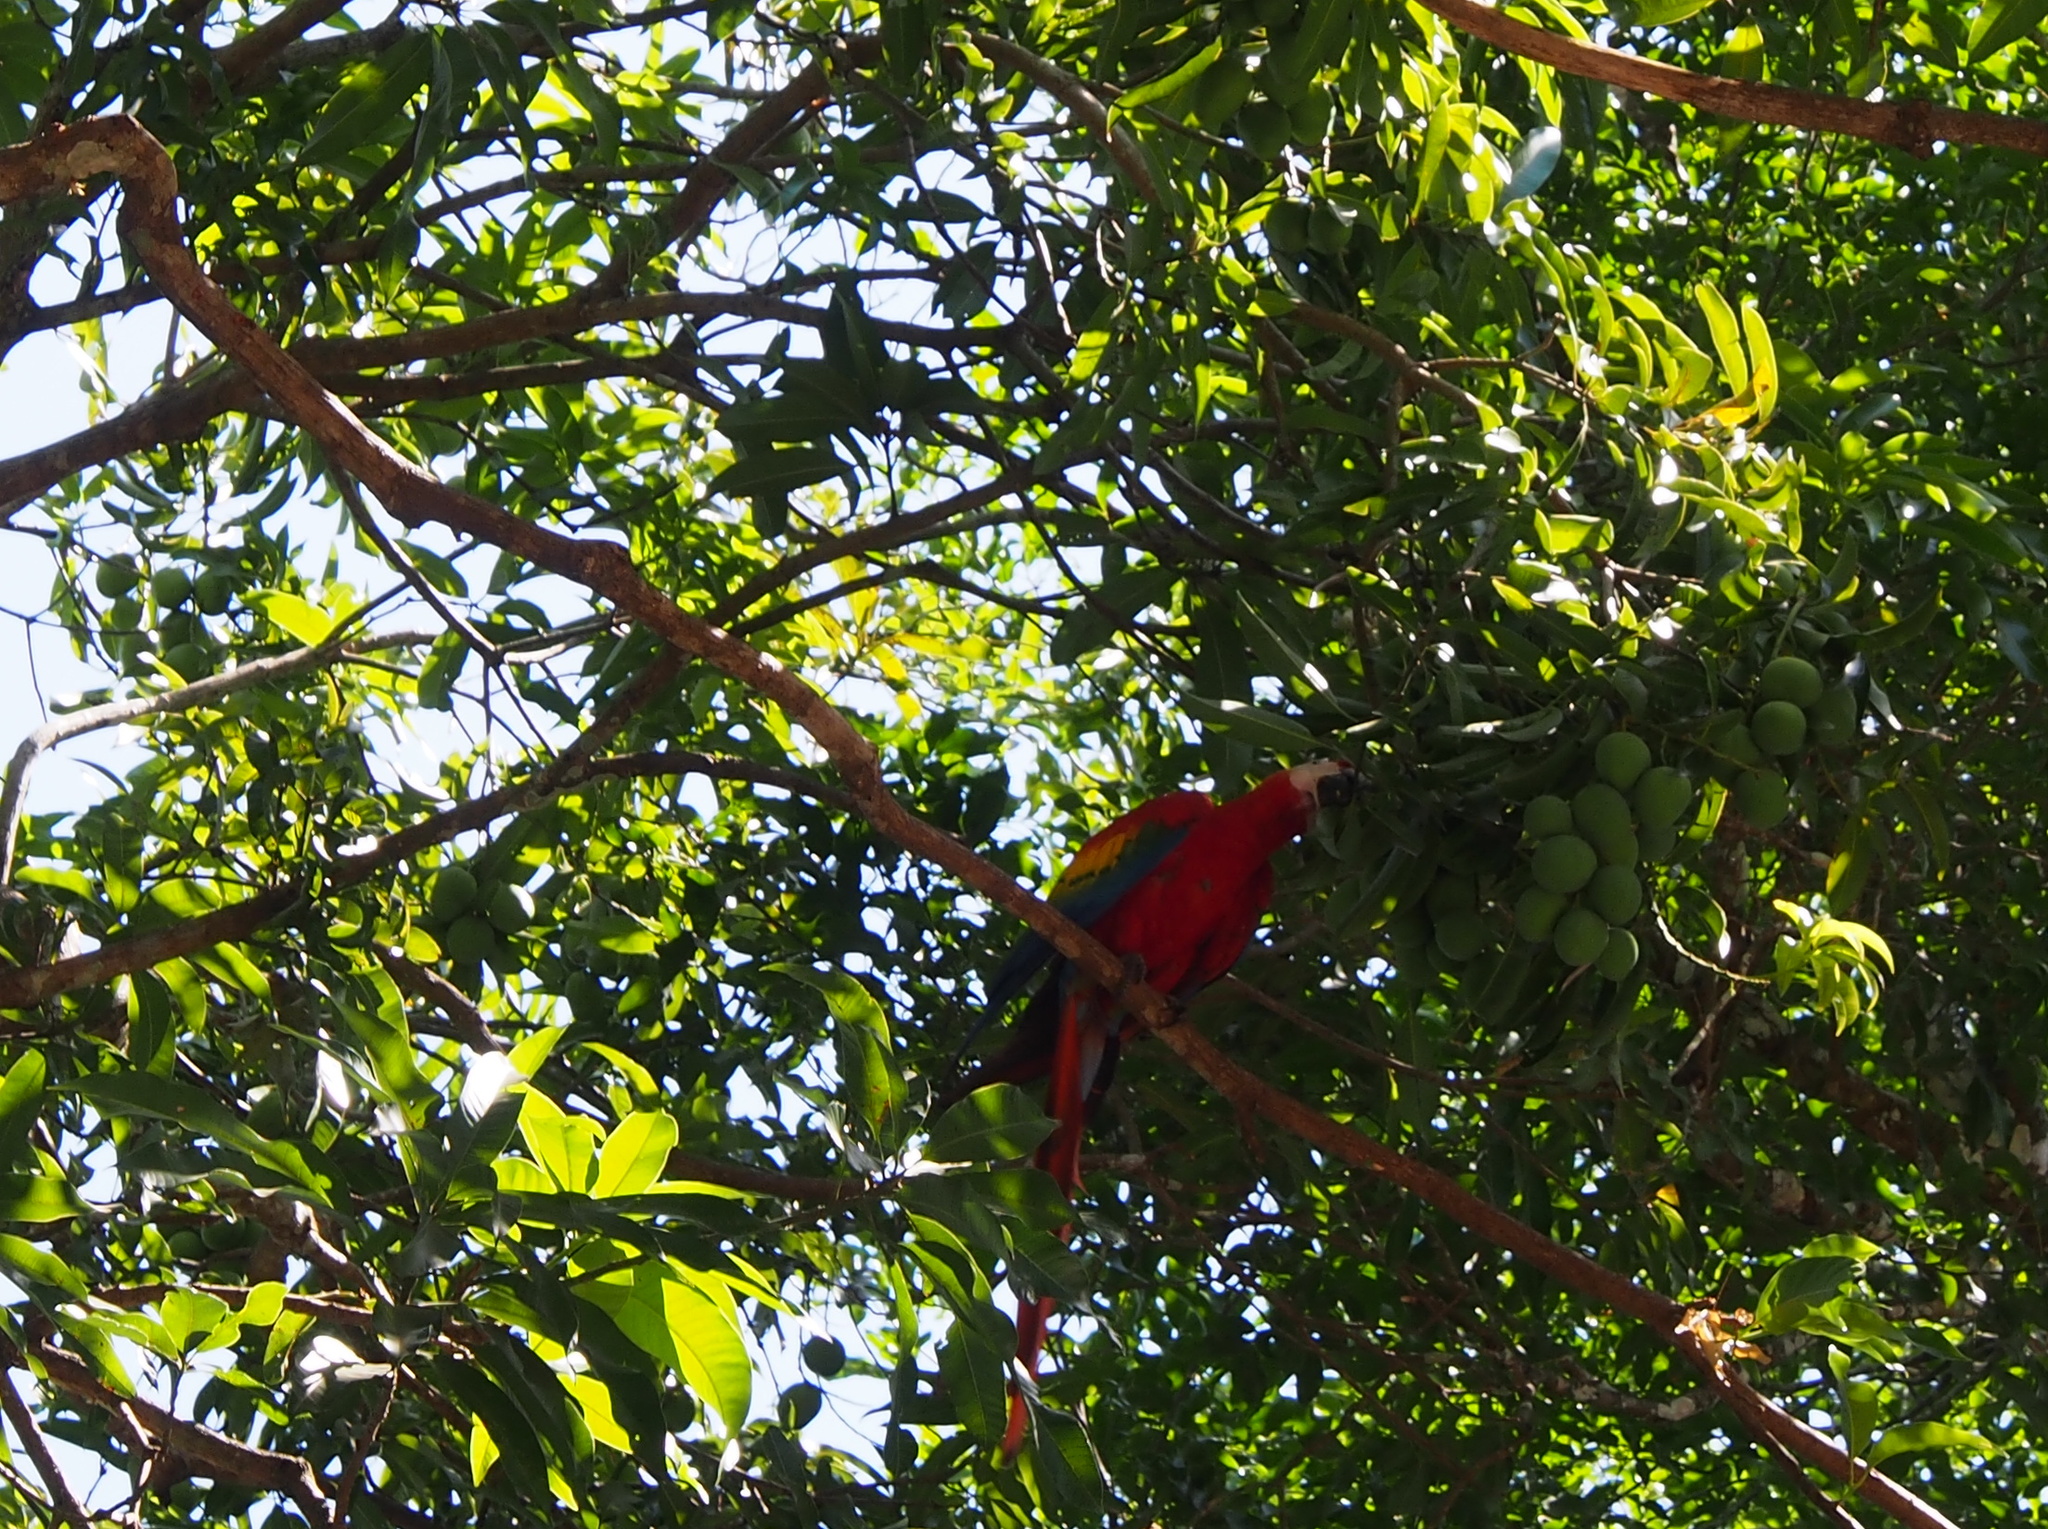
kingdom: Plantae
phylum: Tracheophyta
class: Magnoliopsida
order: Sapindales
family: Anacardiaceae
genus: Mangifera
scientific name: Mangifera indica
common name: Mango
